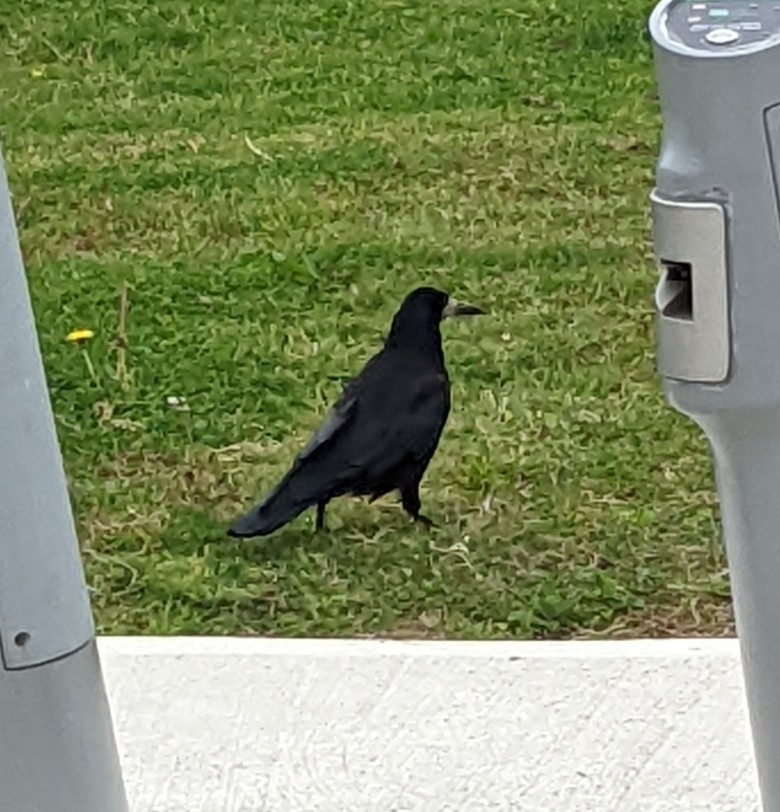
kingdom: Animalia
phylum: Chordata
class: Aves
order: Passeriformes
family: Corvidae
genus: Corvus
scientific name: Corvus frugilegus
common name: Rook
